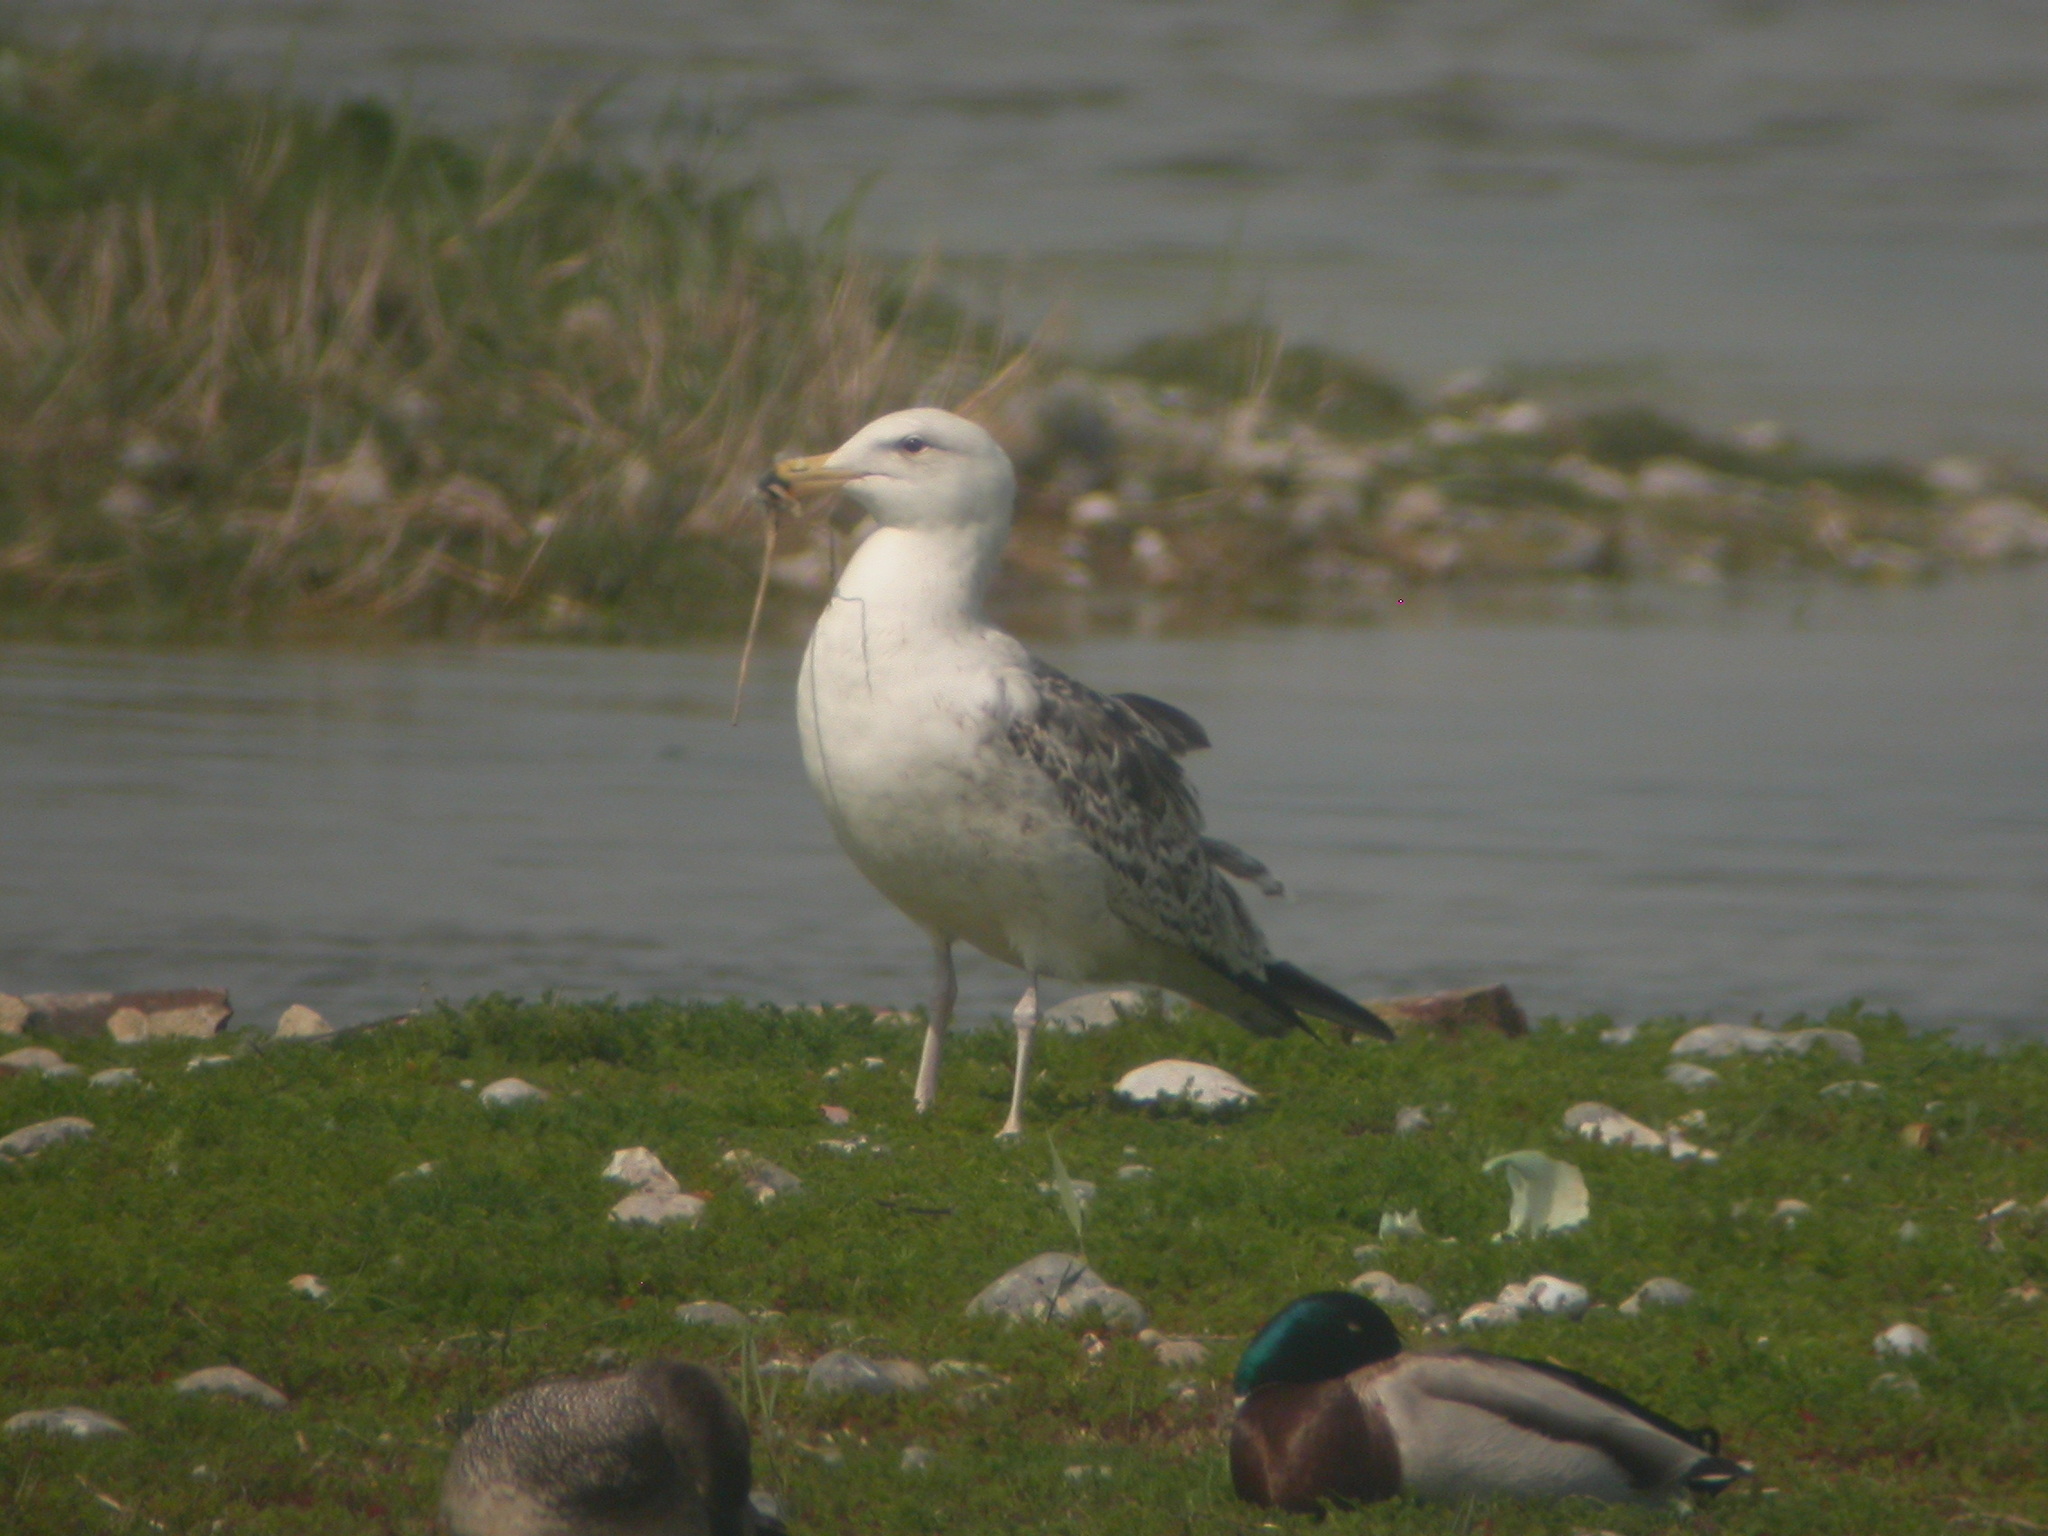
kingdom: Animalia
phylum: Chordata
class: Aves
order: Charadriiformes
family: Laridae
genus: Larus
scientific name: Larus marinus
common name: Great black-backed gull
